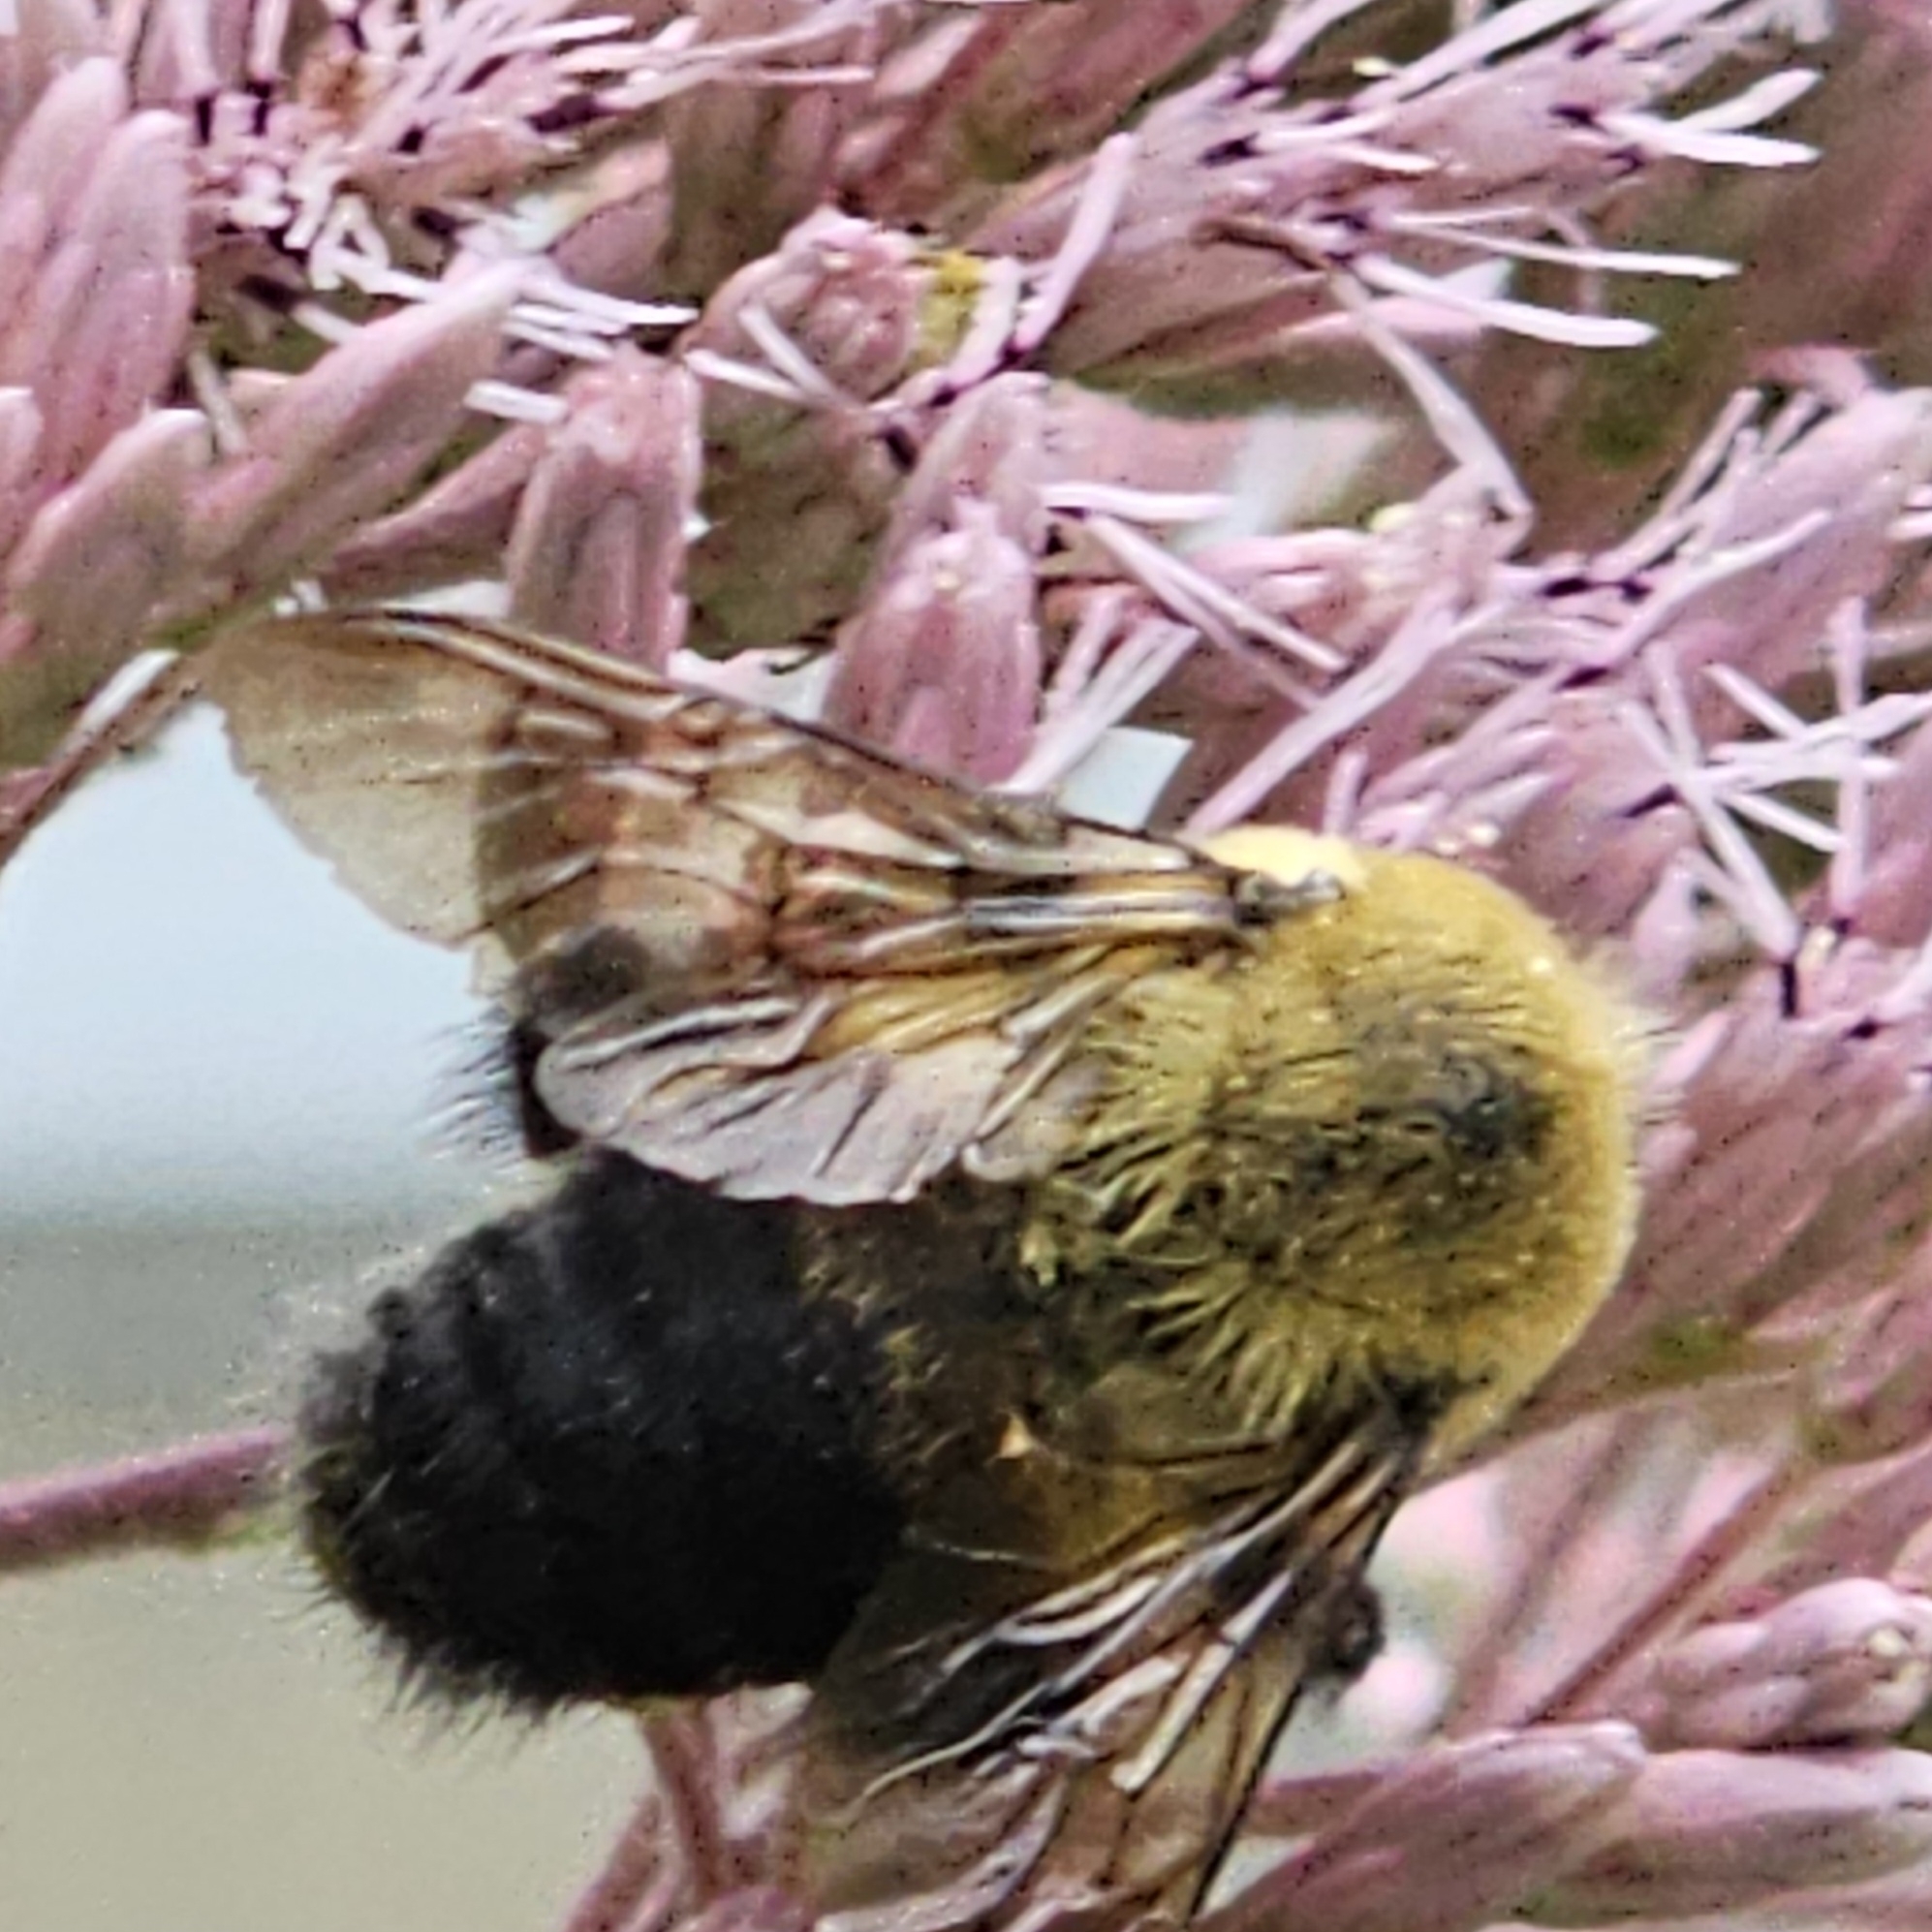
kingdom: Animalia
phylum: Arthropoda
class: Insecta
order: Hymenoptera
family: Apidae
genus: Bombus
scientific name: Bombus griseocollis
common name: Brown-belted bumble bee
